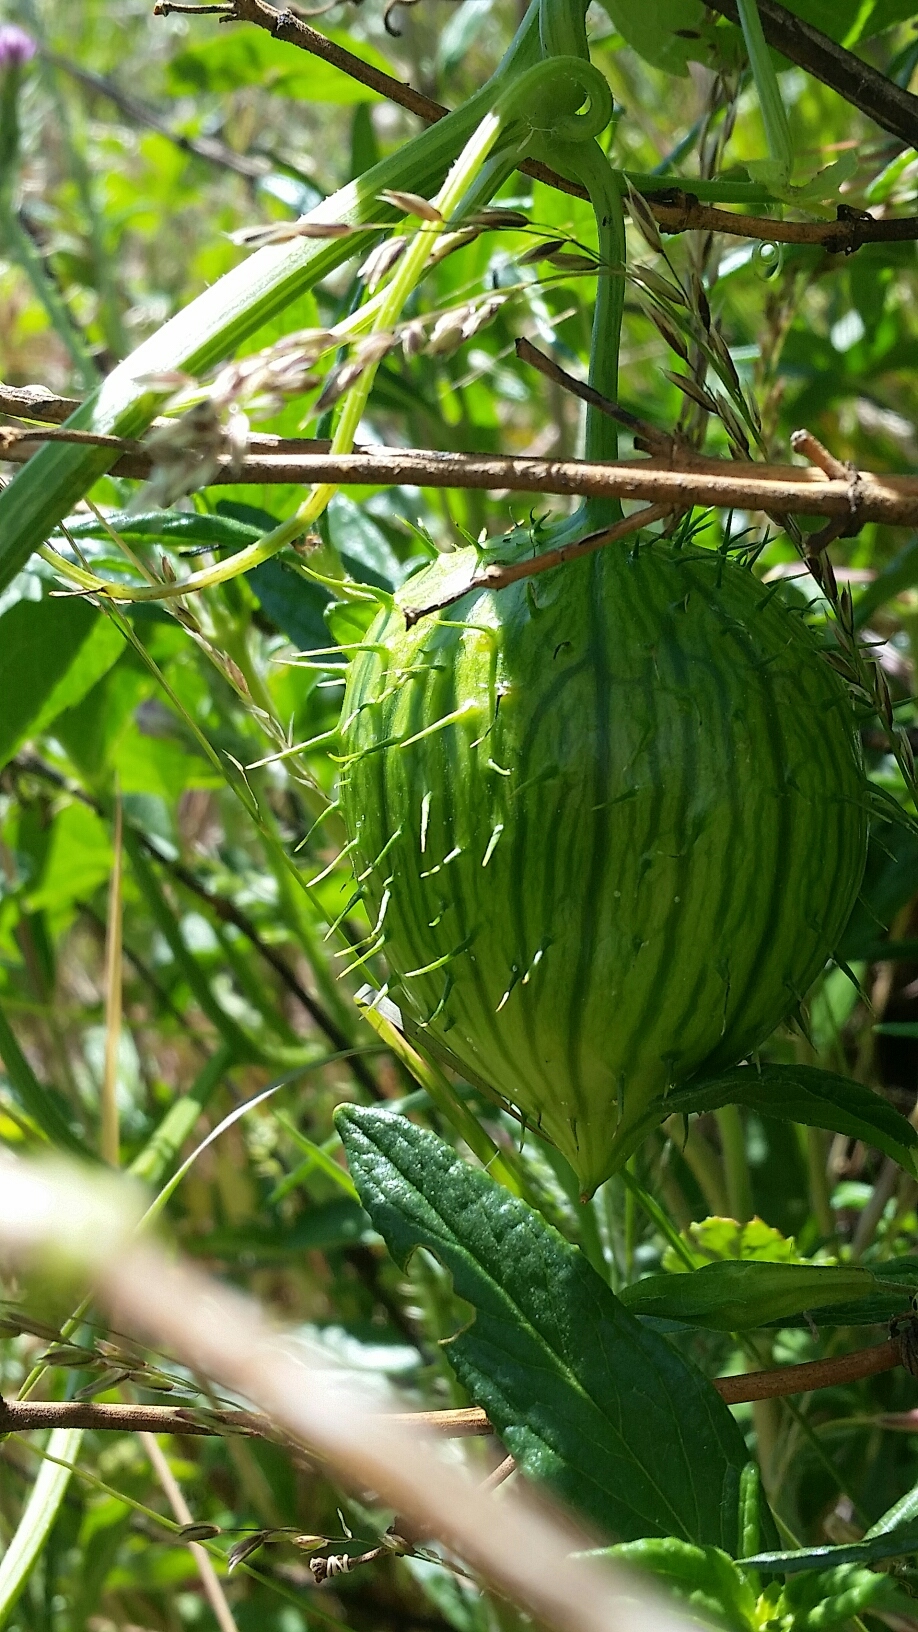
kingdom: Plantae
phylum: Tracheophyta
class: Magnoliopsida
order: Cucurbitales
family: Cucurbitaceae
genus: Marah
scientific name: Marah oregana
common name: Coastal manroot
